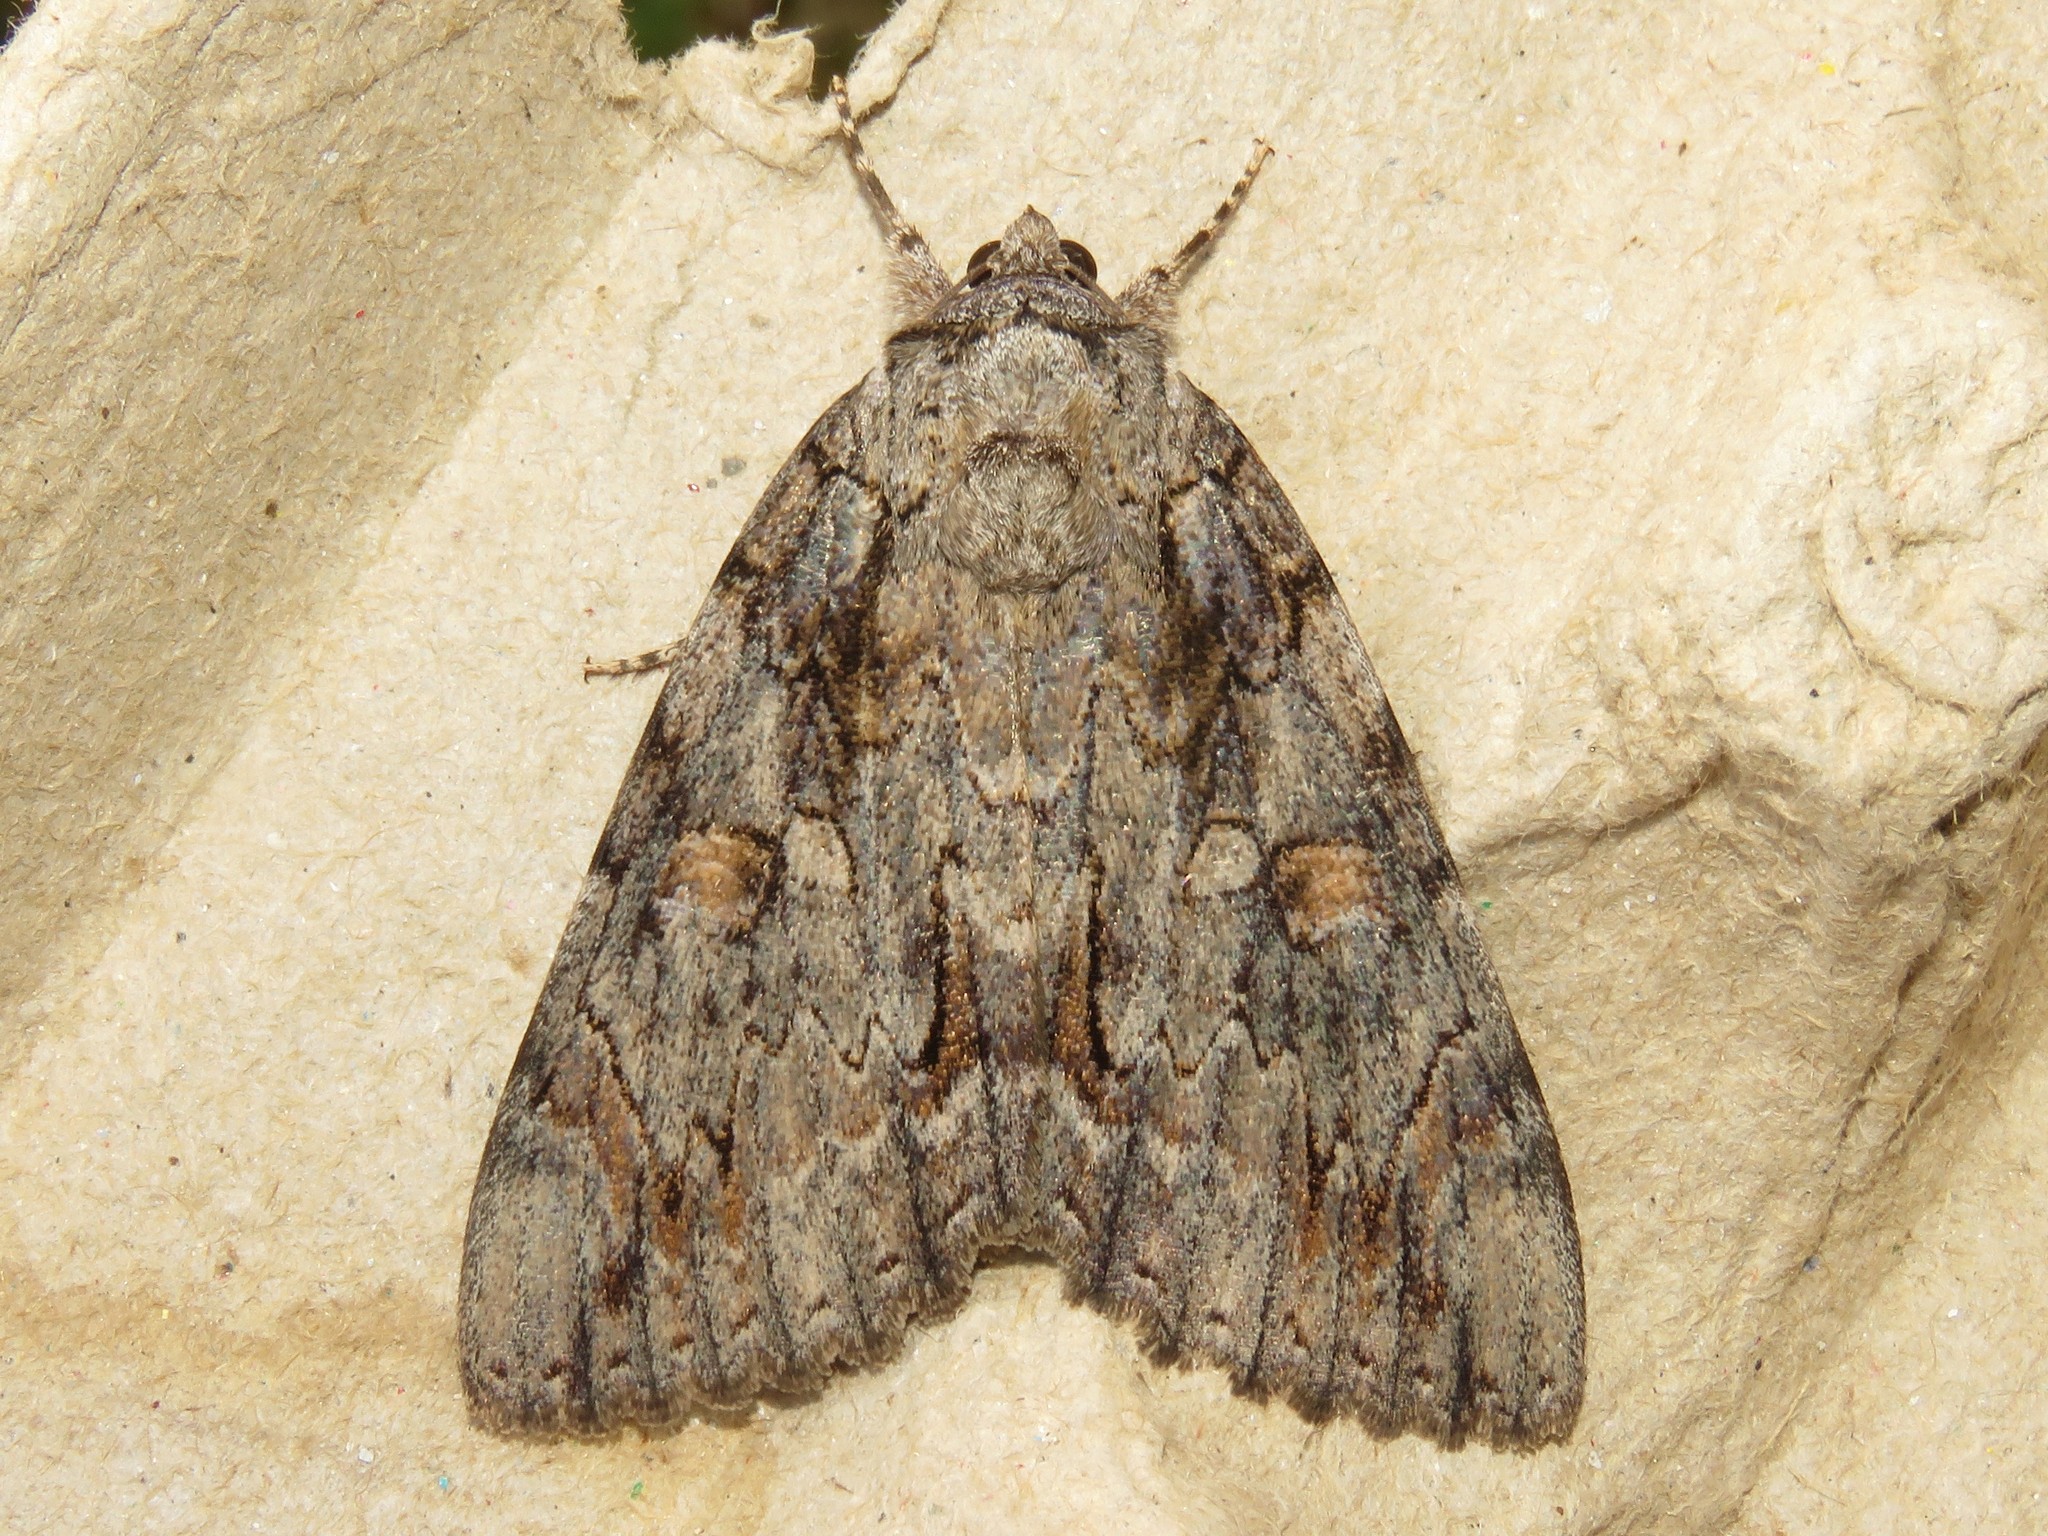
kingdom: Animalia
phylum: Arthropoda
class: Insecta
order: Lepidoptera
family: Erebidae
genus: Catocala
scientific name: Catocala neogama
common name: Bride underwing
